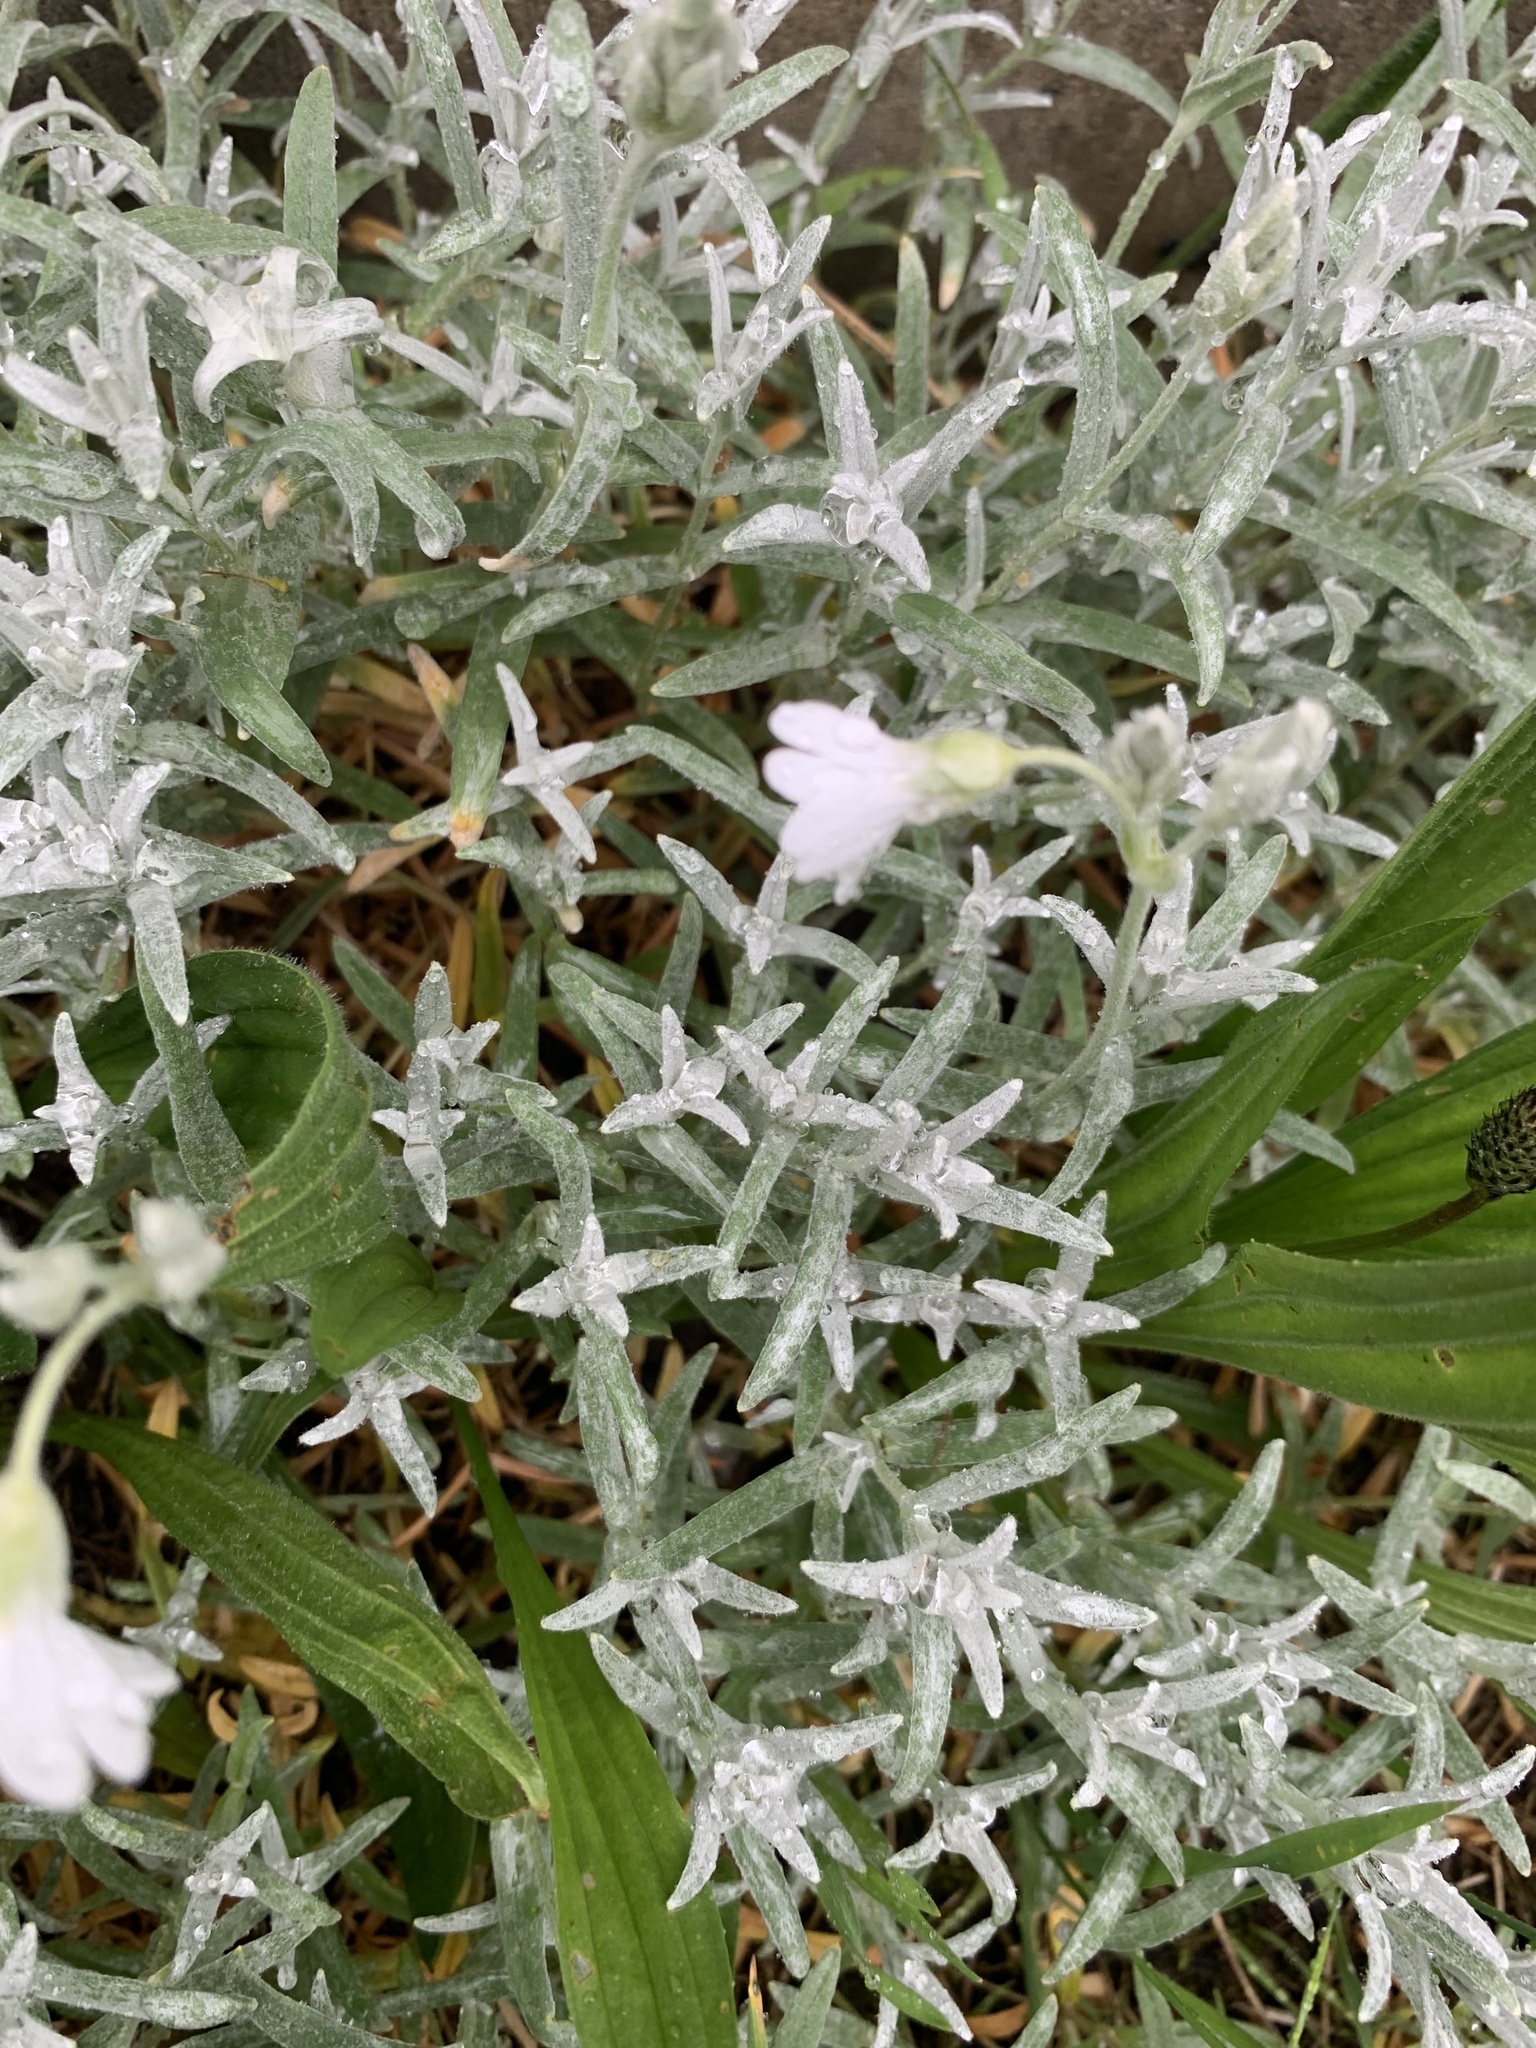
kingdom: Plantae
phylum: Tracheophyta
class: Magnoliopsida
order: Caryophyllales
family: Caryophyllaceae
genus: Cerastium
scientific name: Cerastium tomentosum
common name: Snow-in-summer
